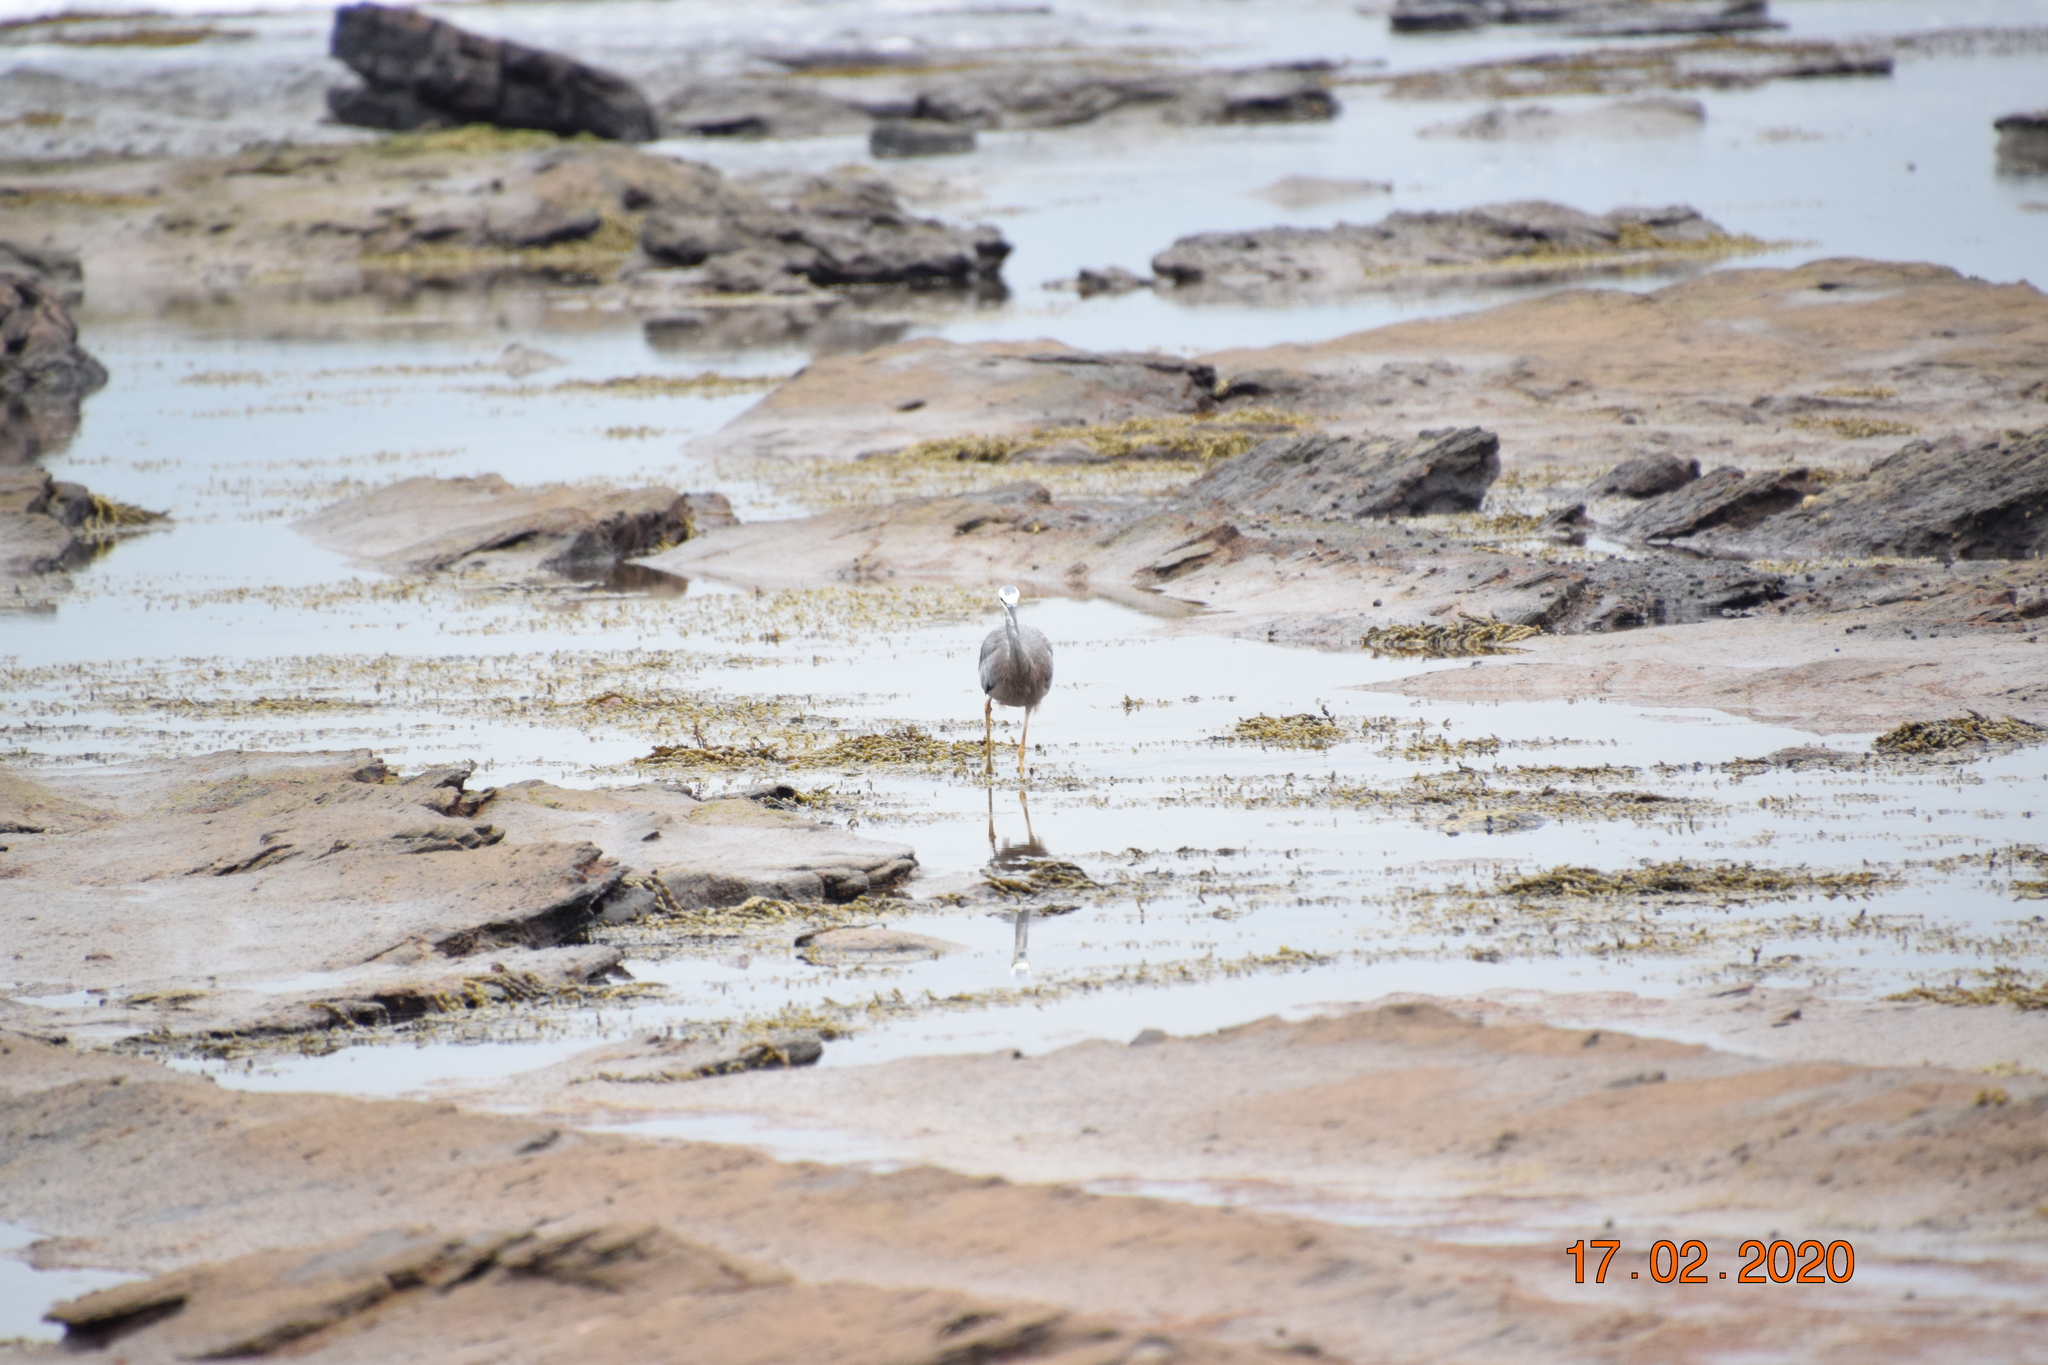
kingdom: Animalia
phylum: Chordata
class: Aves
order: Pelecaniformes
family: Ardeidae
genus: Egretta
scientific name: Egretta novaehollandiae
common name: White-faced heron
